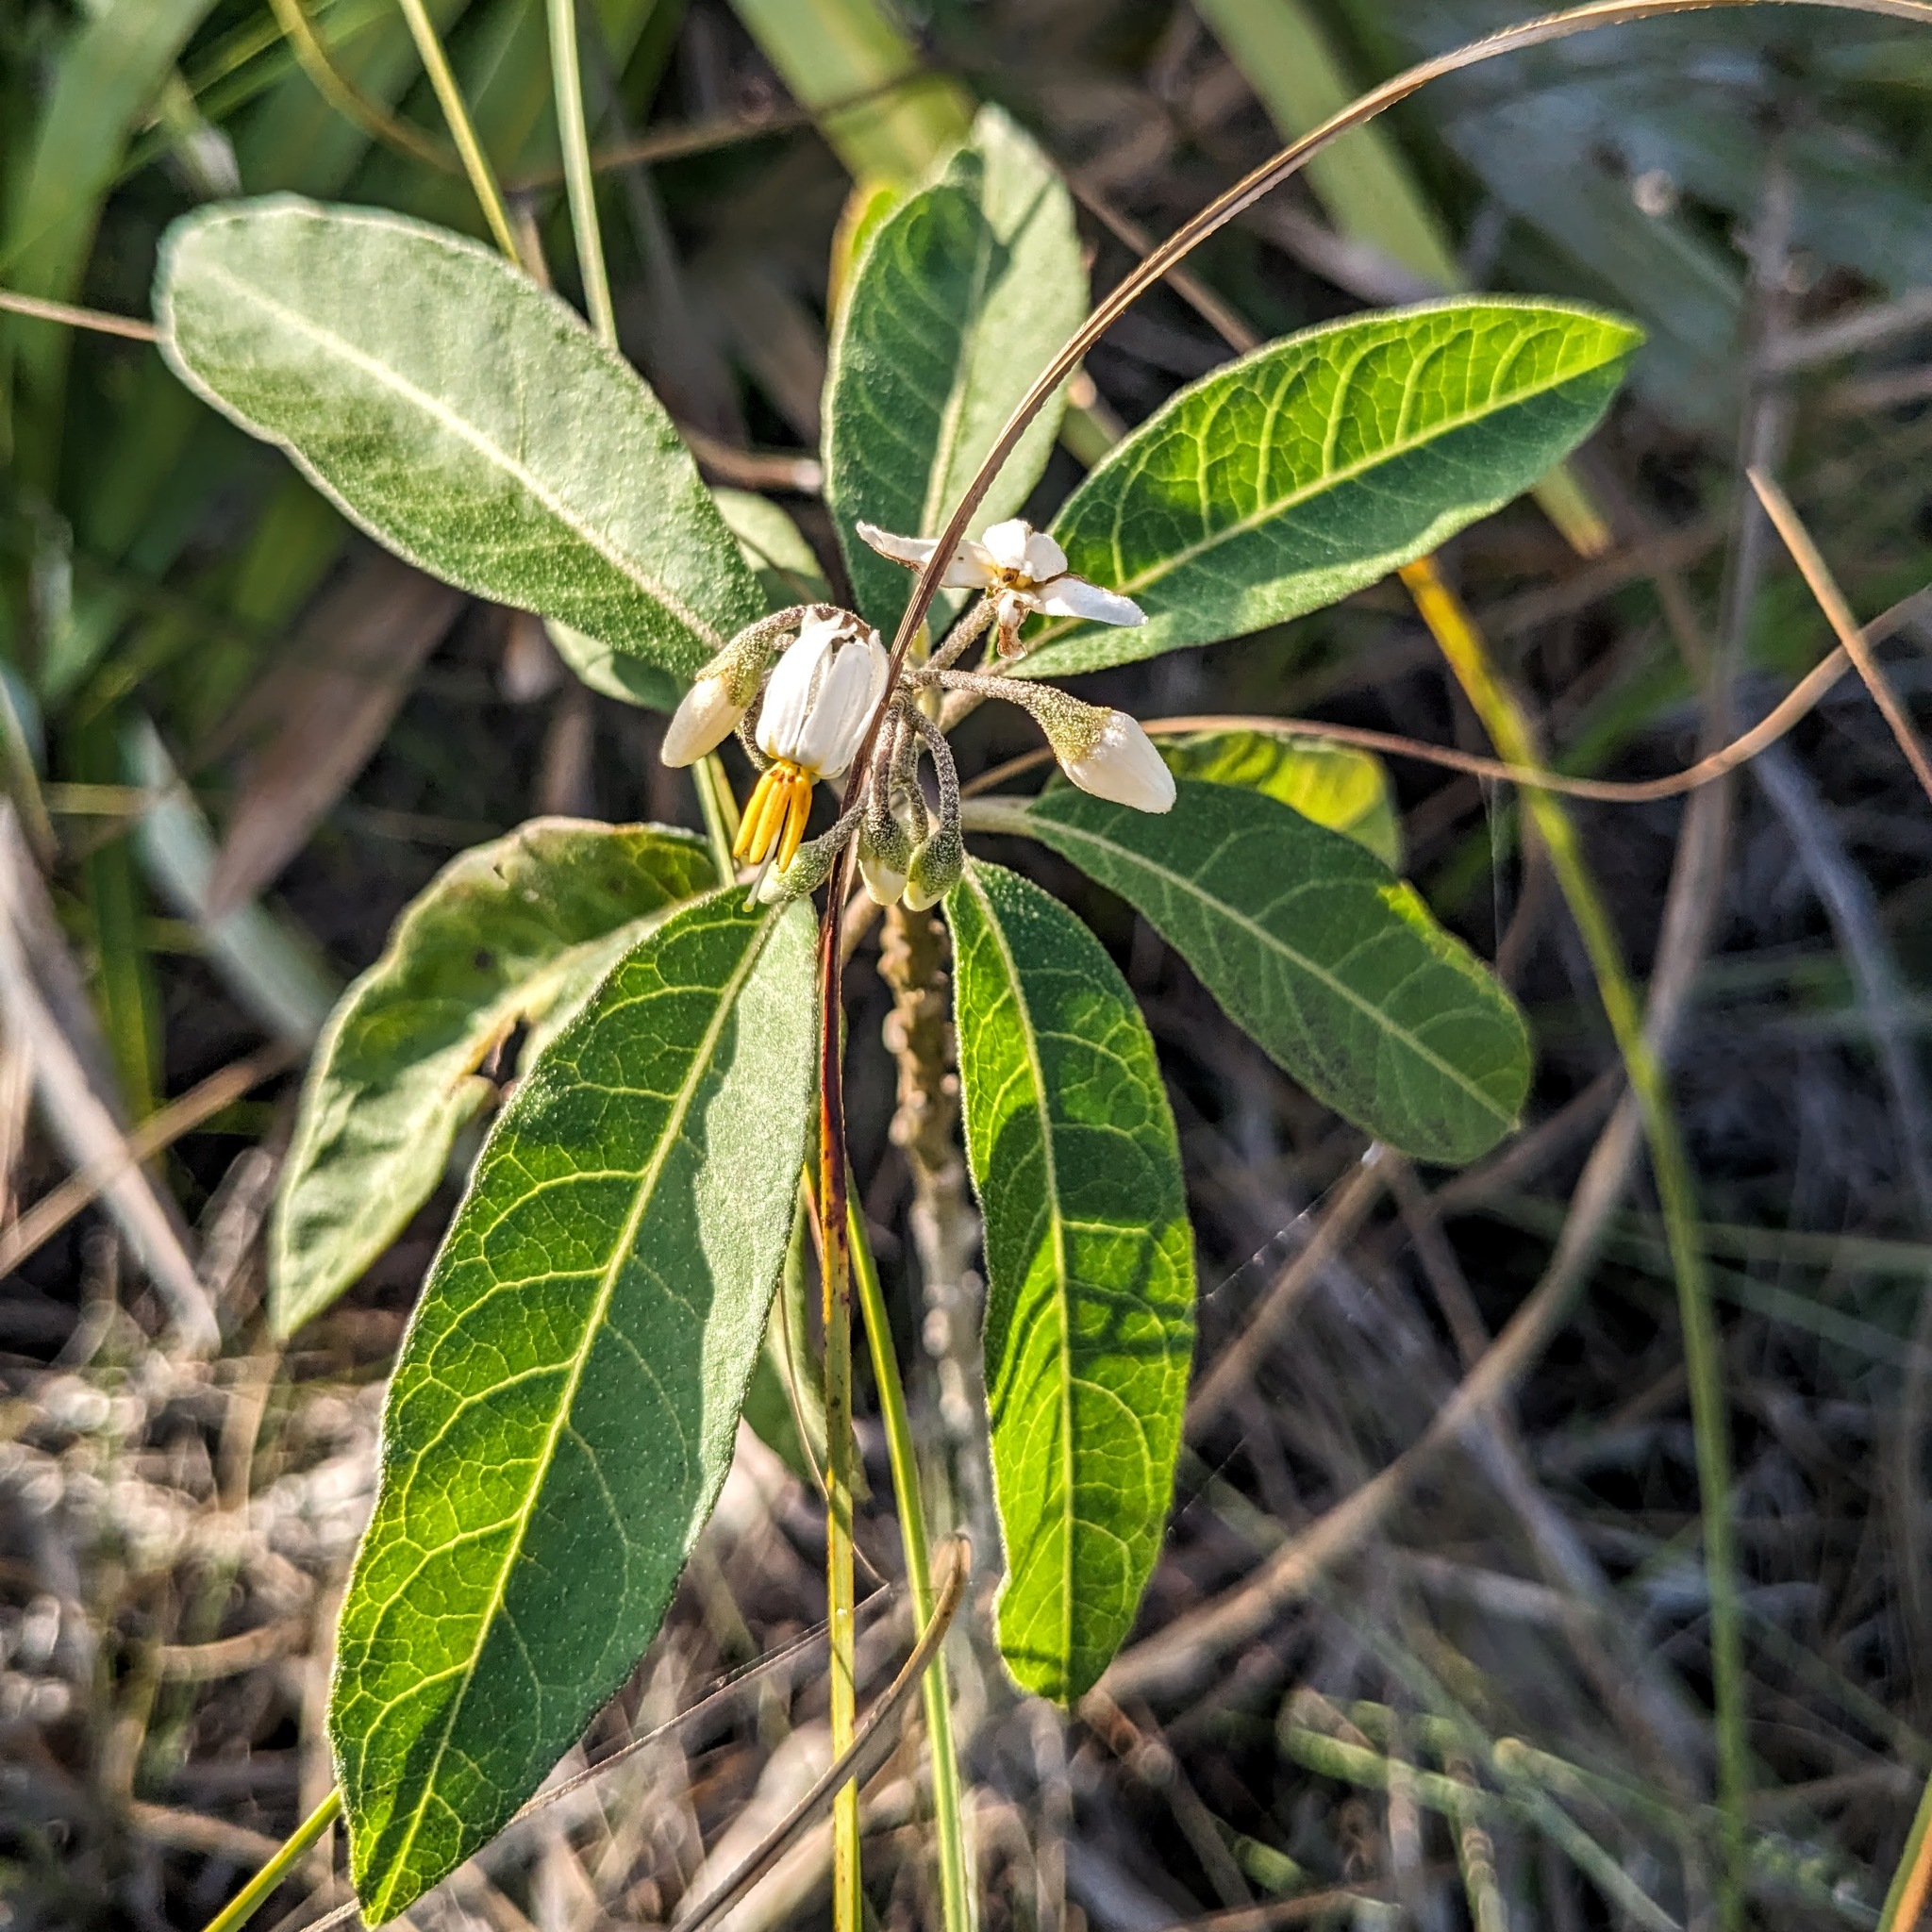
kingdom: Plantae
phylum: Tracheophyta
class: Magnoliopsida
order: Solanales
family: Solanaceae
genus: Solanum
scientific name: Solanum donianum
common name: Mullein nightshade
